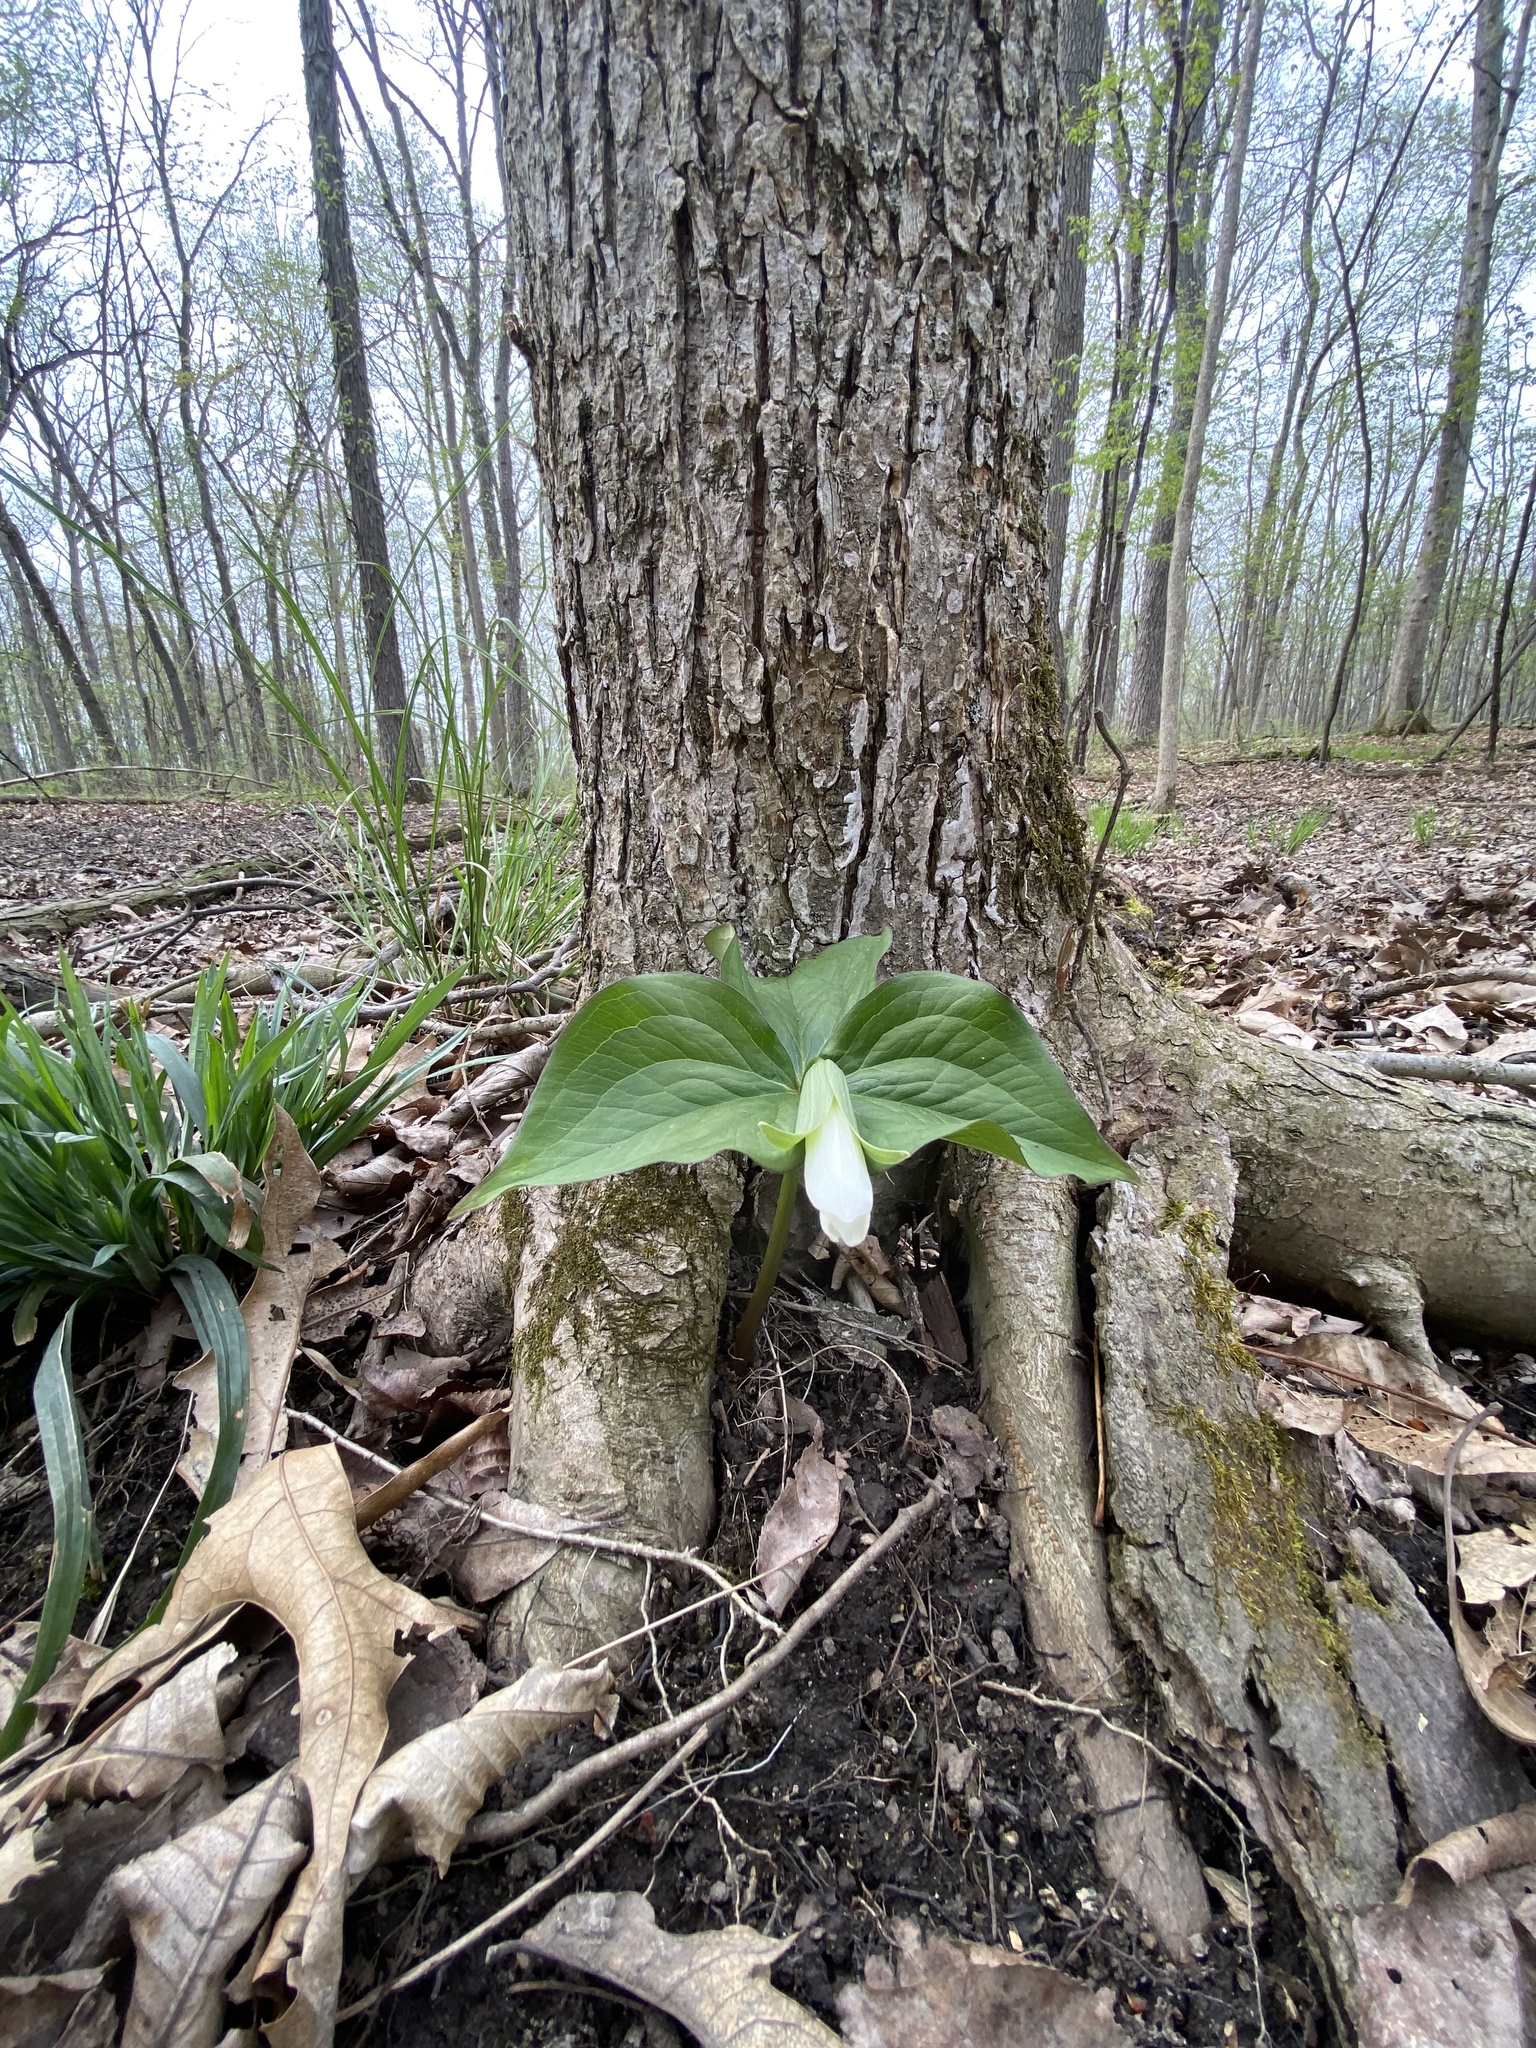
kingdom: Plantae
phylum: Tracheophyta
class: Liliopsida
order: Liliales
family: Melanthiaceae
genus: Trillium
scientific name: Trillium grandiflorum
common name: Great white trillium
